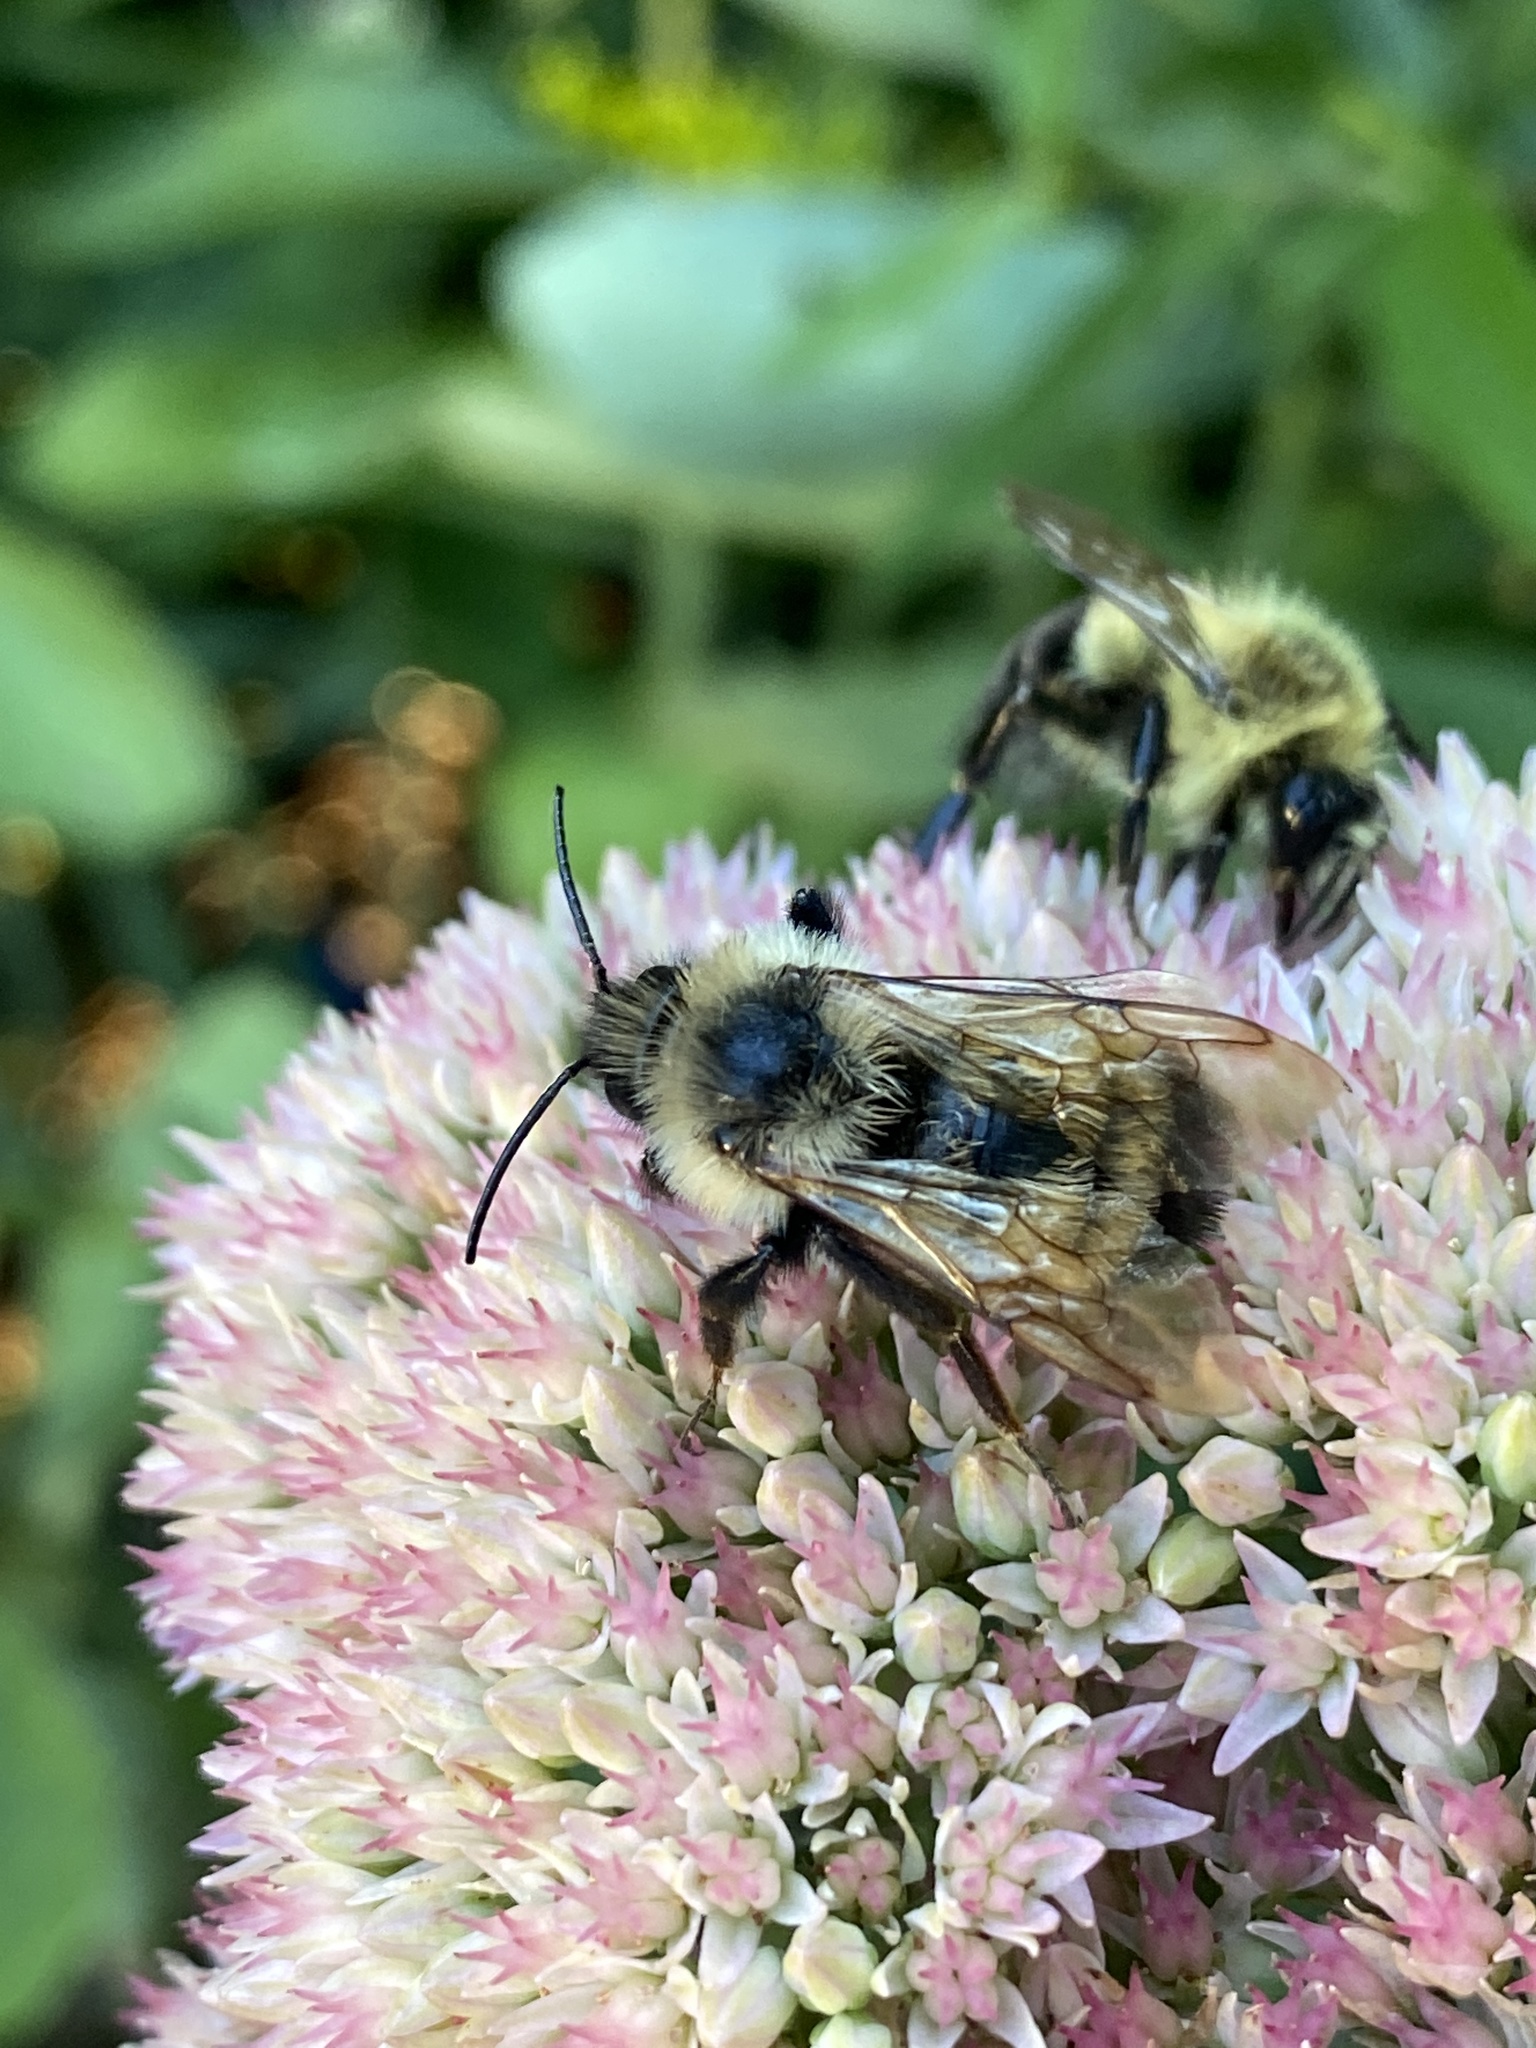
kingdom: Animalia
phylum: Arthropoda
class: Insecta
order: Hymenoptera
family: Apidae
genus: Bombus
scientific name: Bombus citrinus
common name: Lemon cuckoo bumble bee
